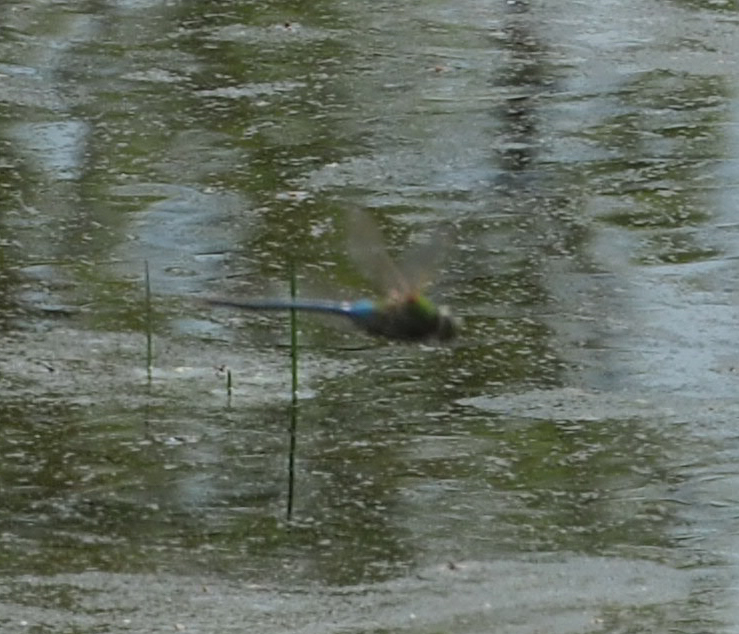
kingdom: Animalia
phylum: Arthropoda
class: Insecta
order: Odonata
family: Aeshnidae
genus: Anax
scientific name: Anax junius
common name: Common green darner
